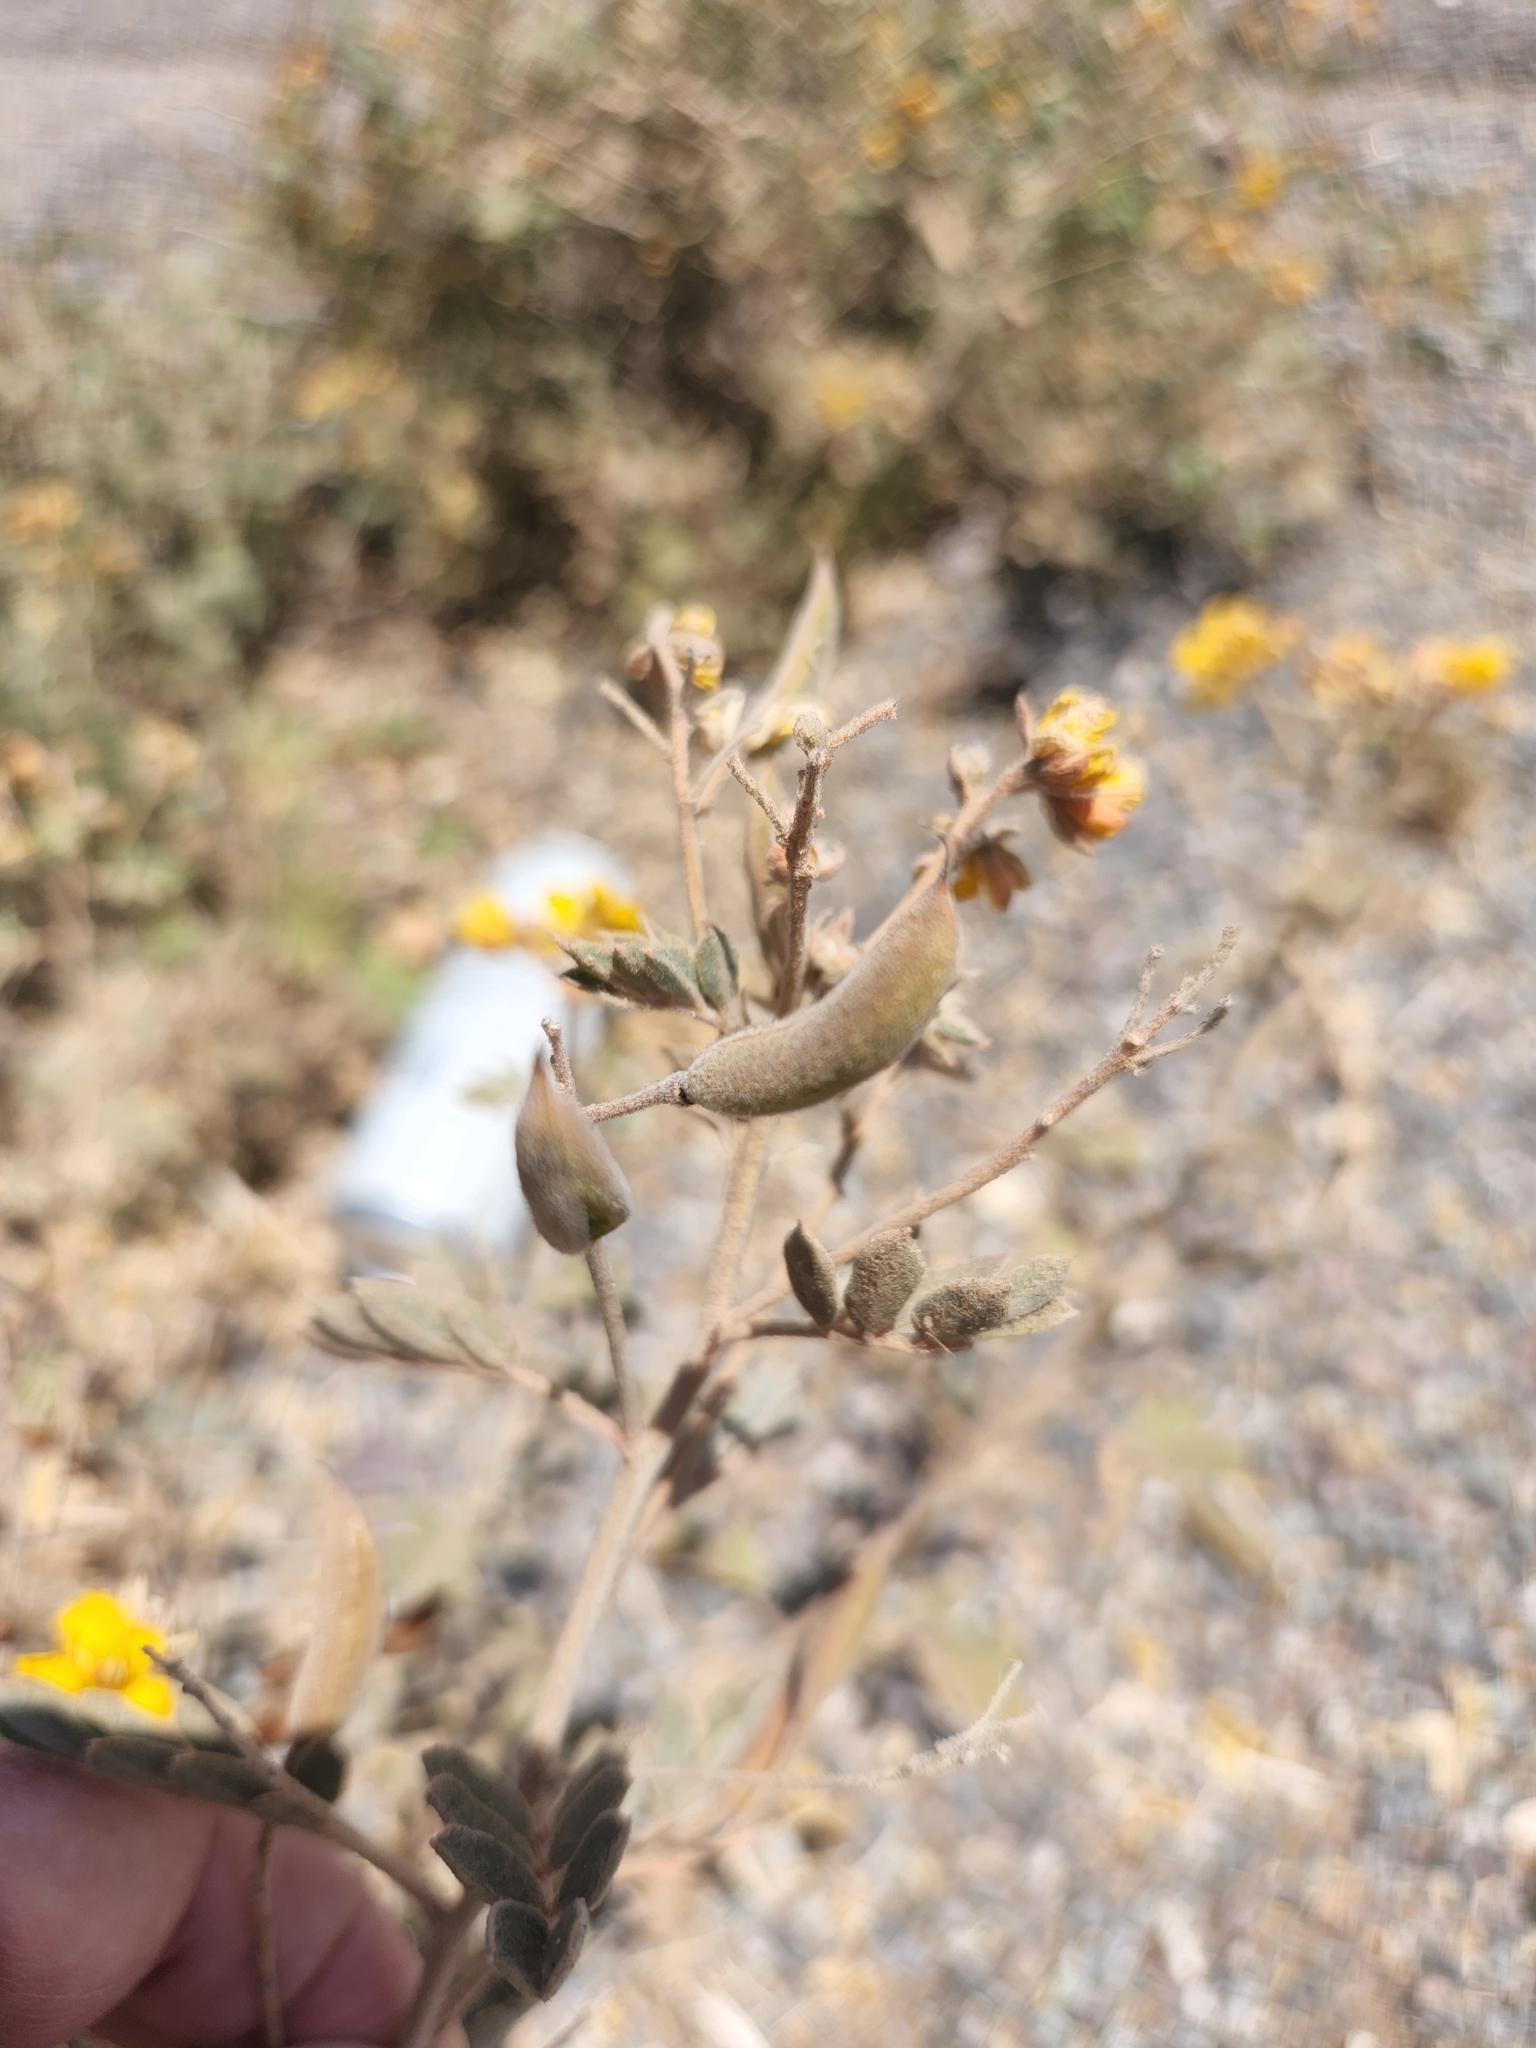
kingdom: Plantae
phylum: Tracheophyta
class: Magnoliopsida
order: Fabales
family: Fabaceae
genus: Senna
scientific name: Senna covesii
